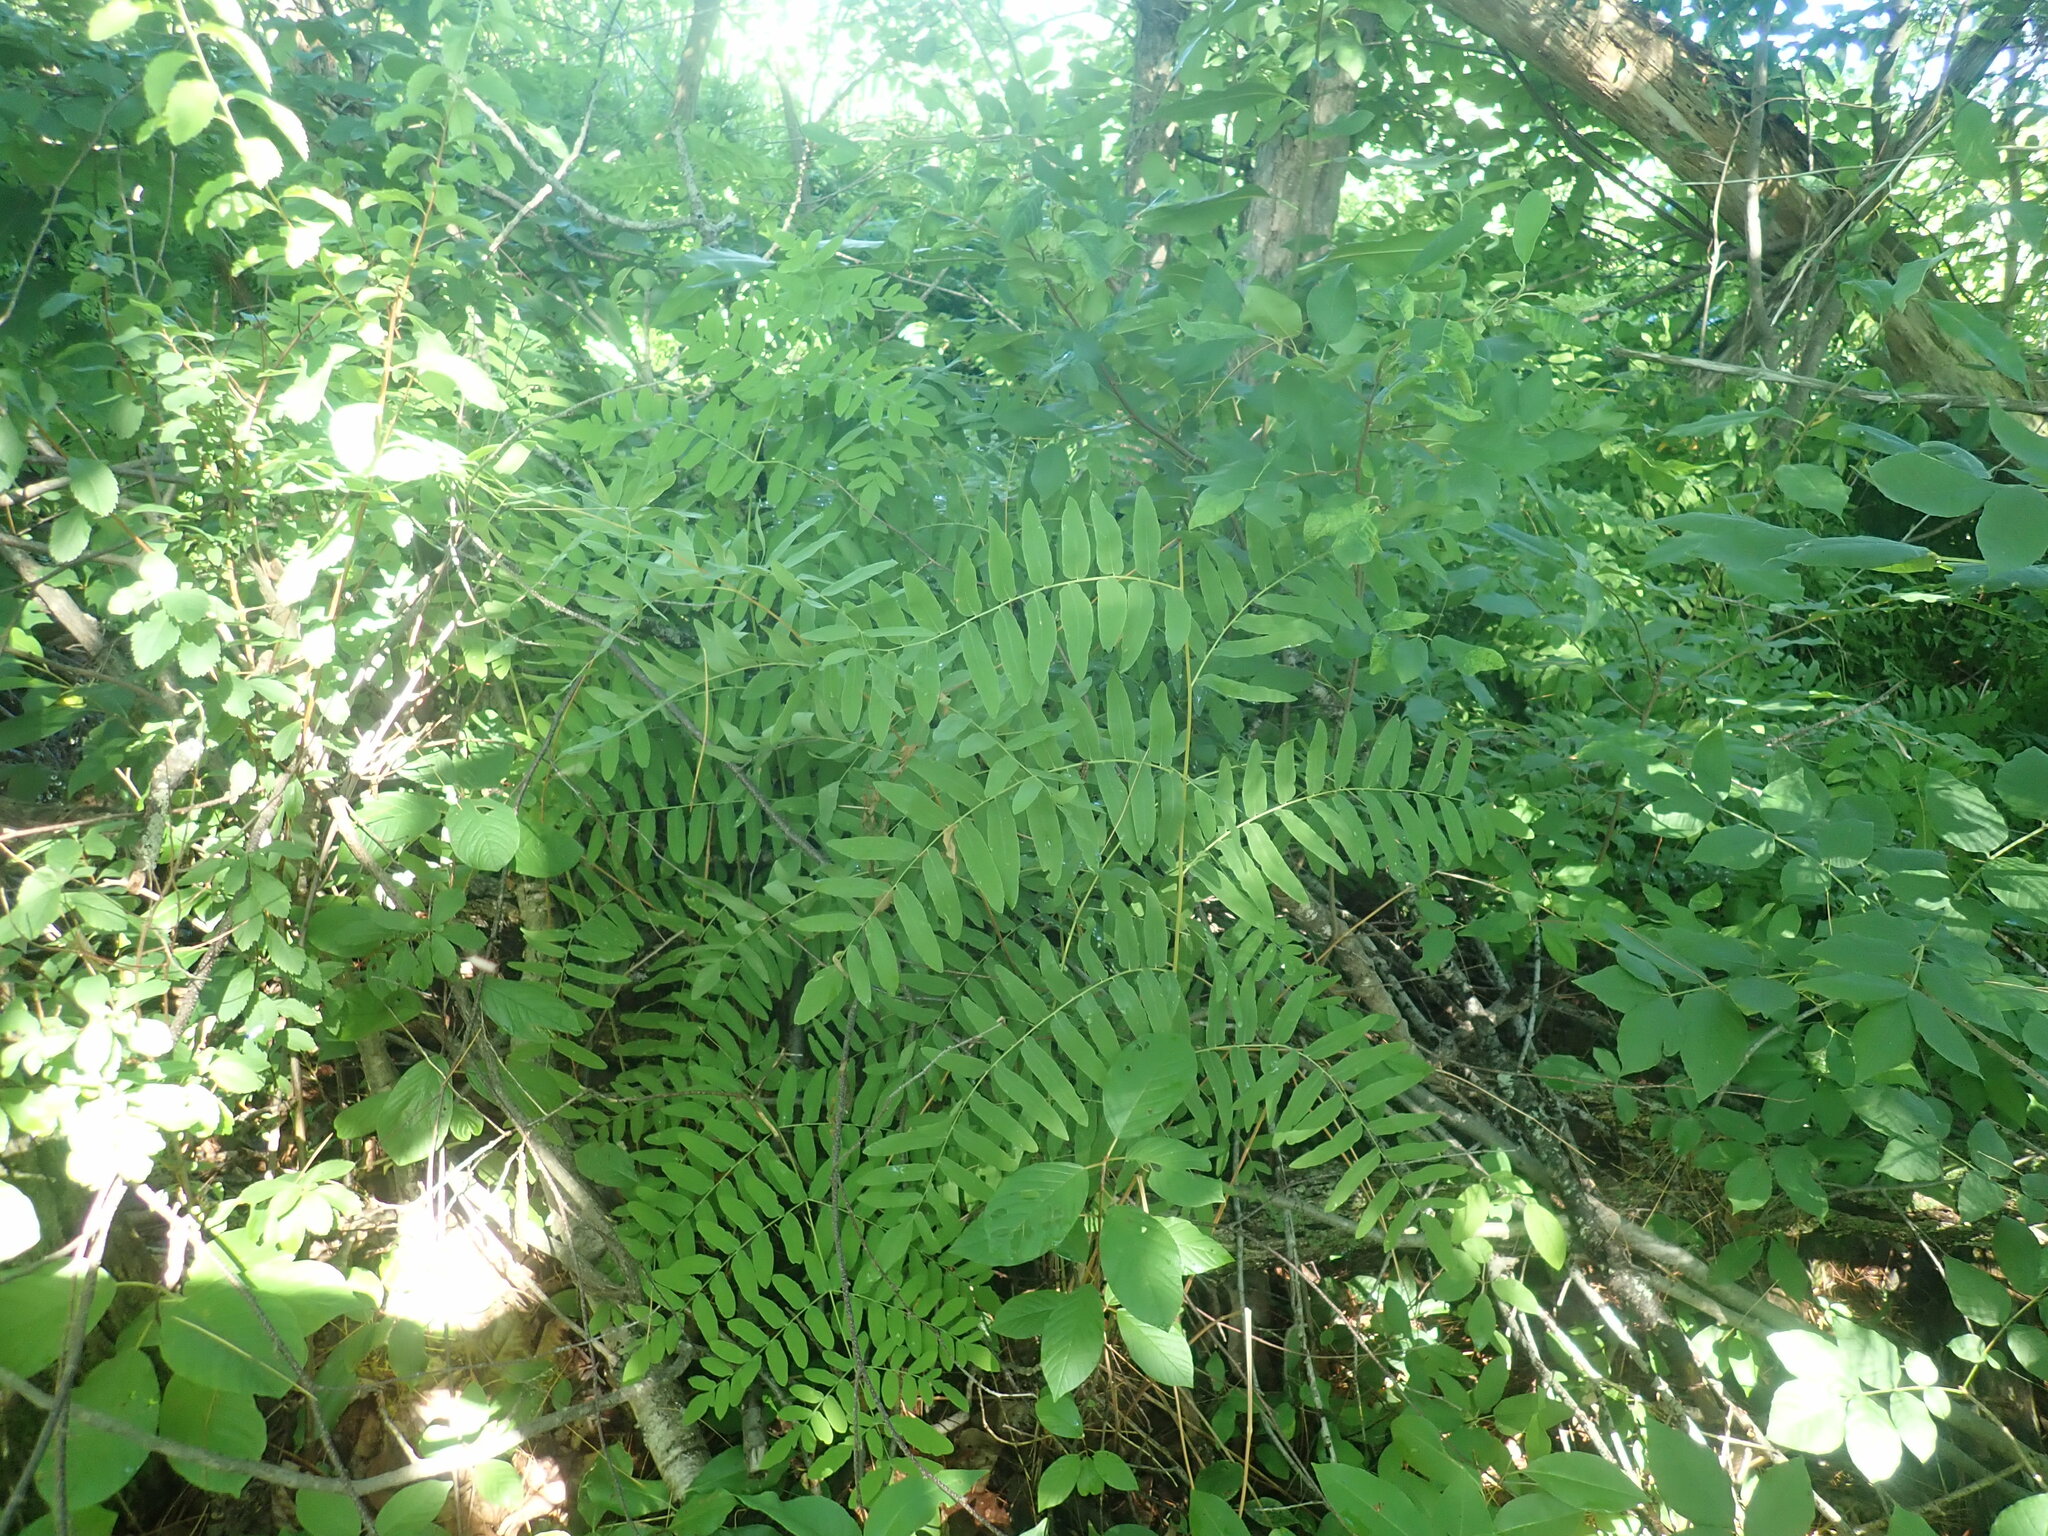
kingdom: Plantae
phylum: Tracheophyta
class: Polypodiopsida
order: Osmundales
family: Osmundaceae
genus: Osmunda
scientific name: Osmunda spectabilis
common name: American royal fern
